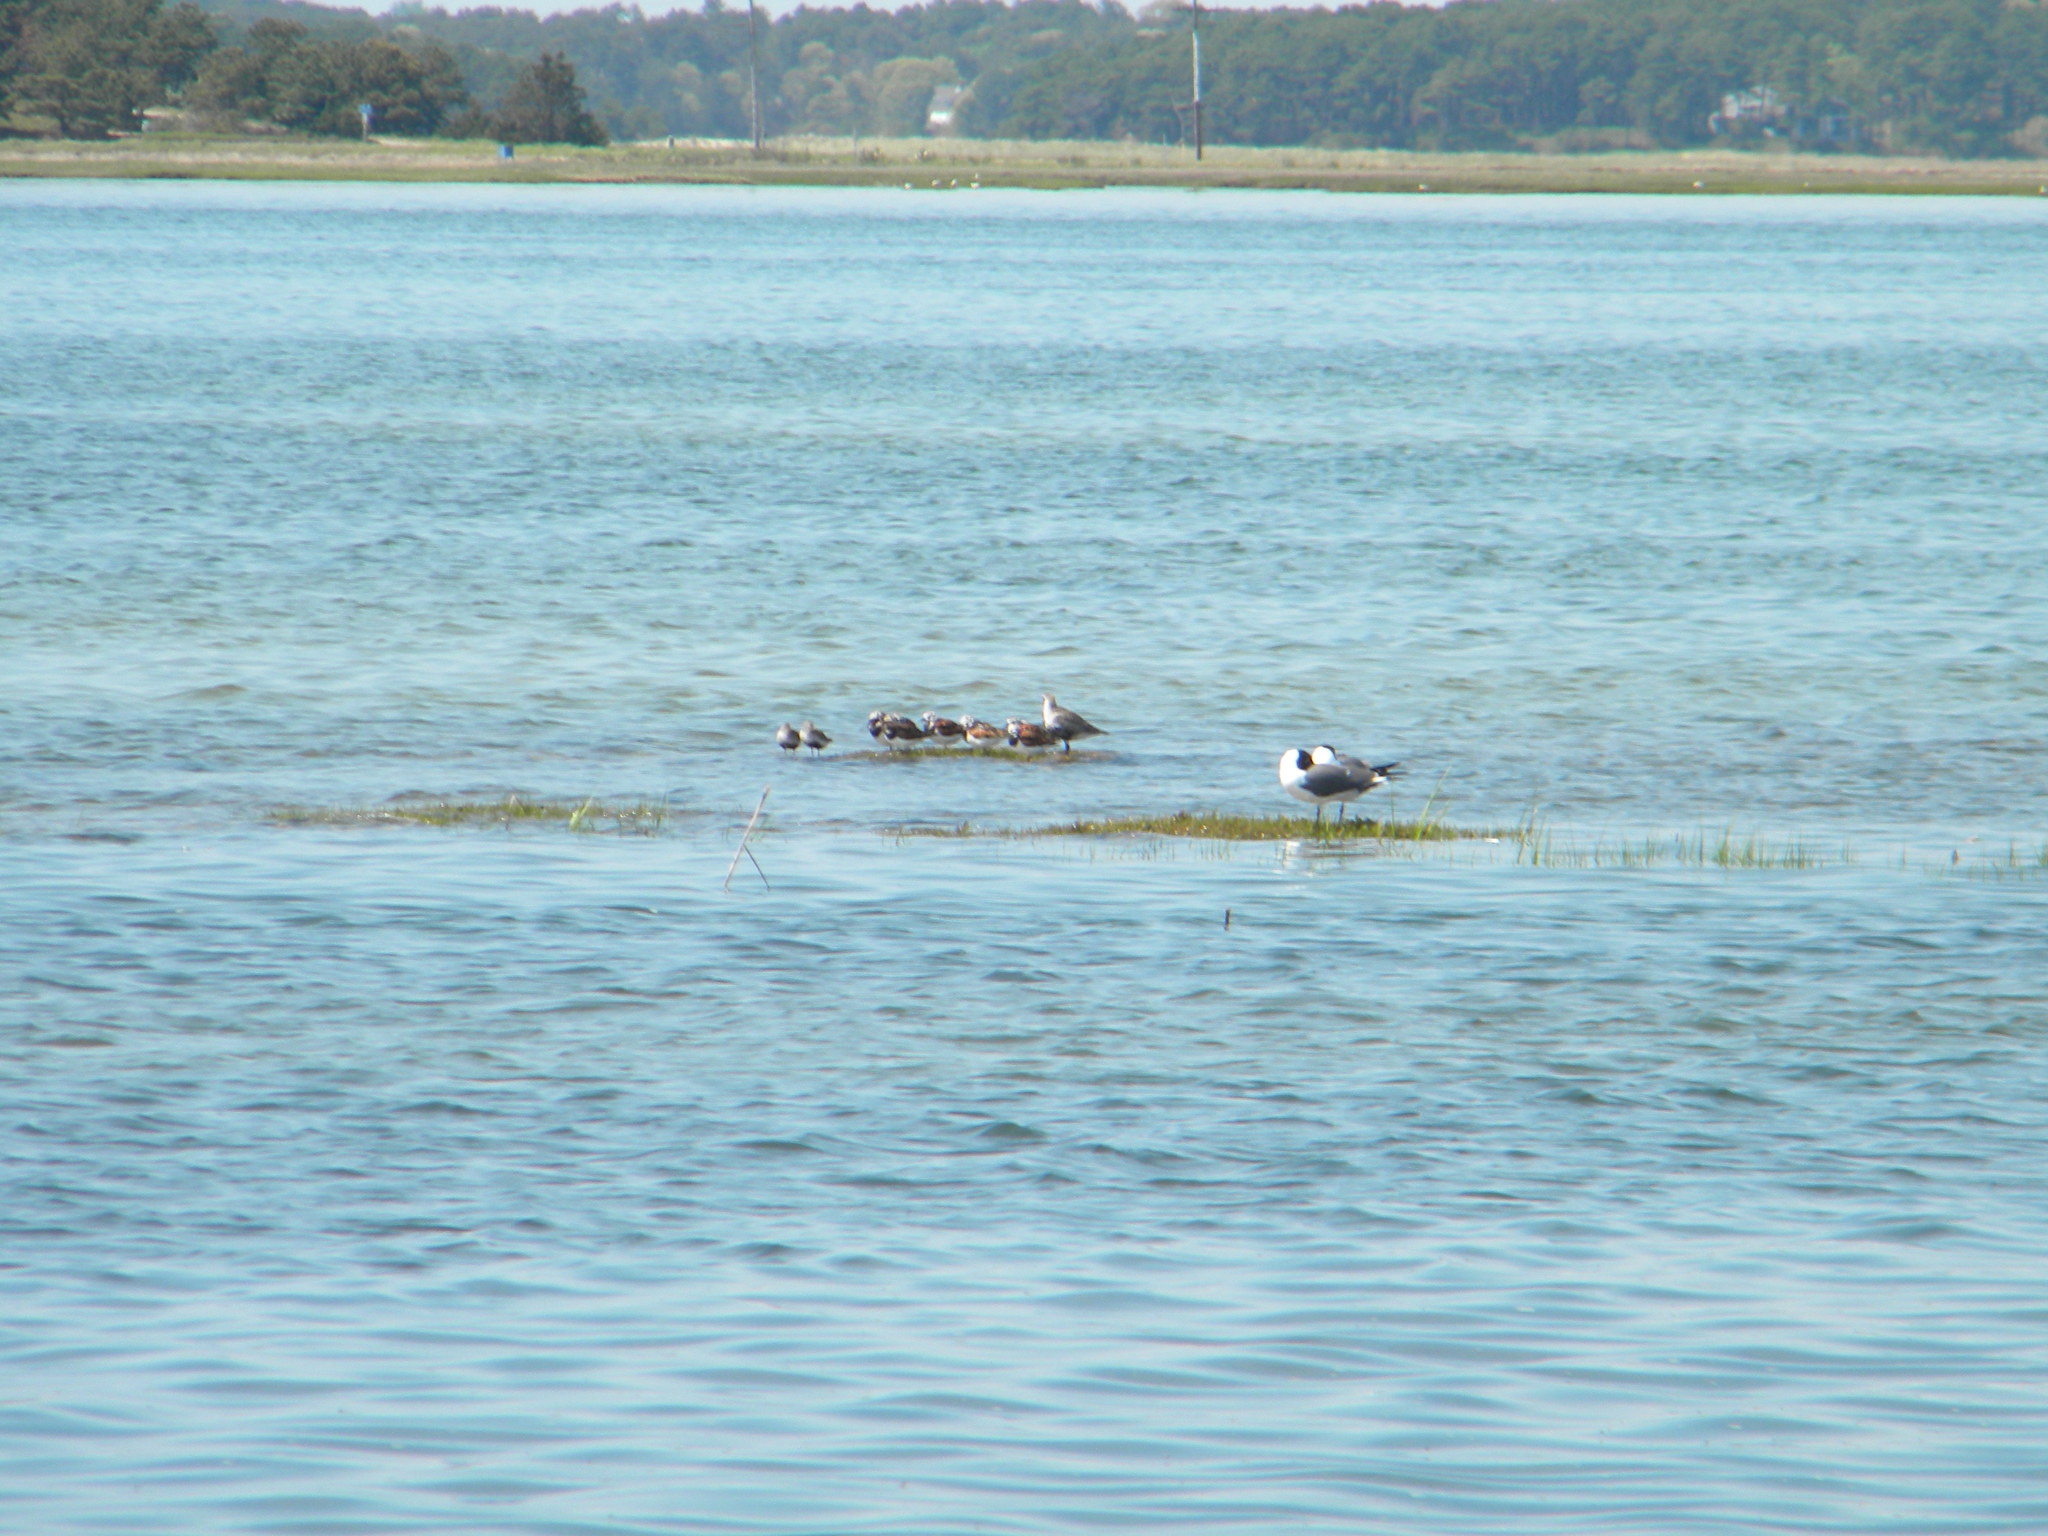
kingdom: Animalia
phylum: Chordata
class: Aves
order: Charadriiformes
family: Charadriidae
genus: Pluvialis
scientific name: Pluvialis squatarola
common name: Grey plover
